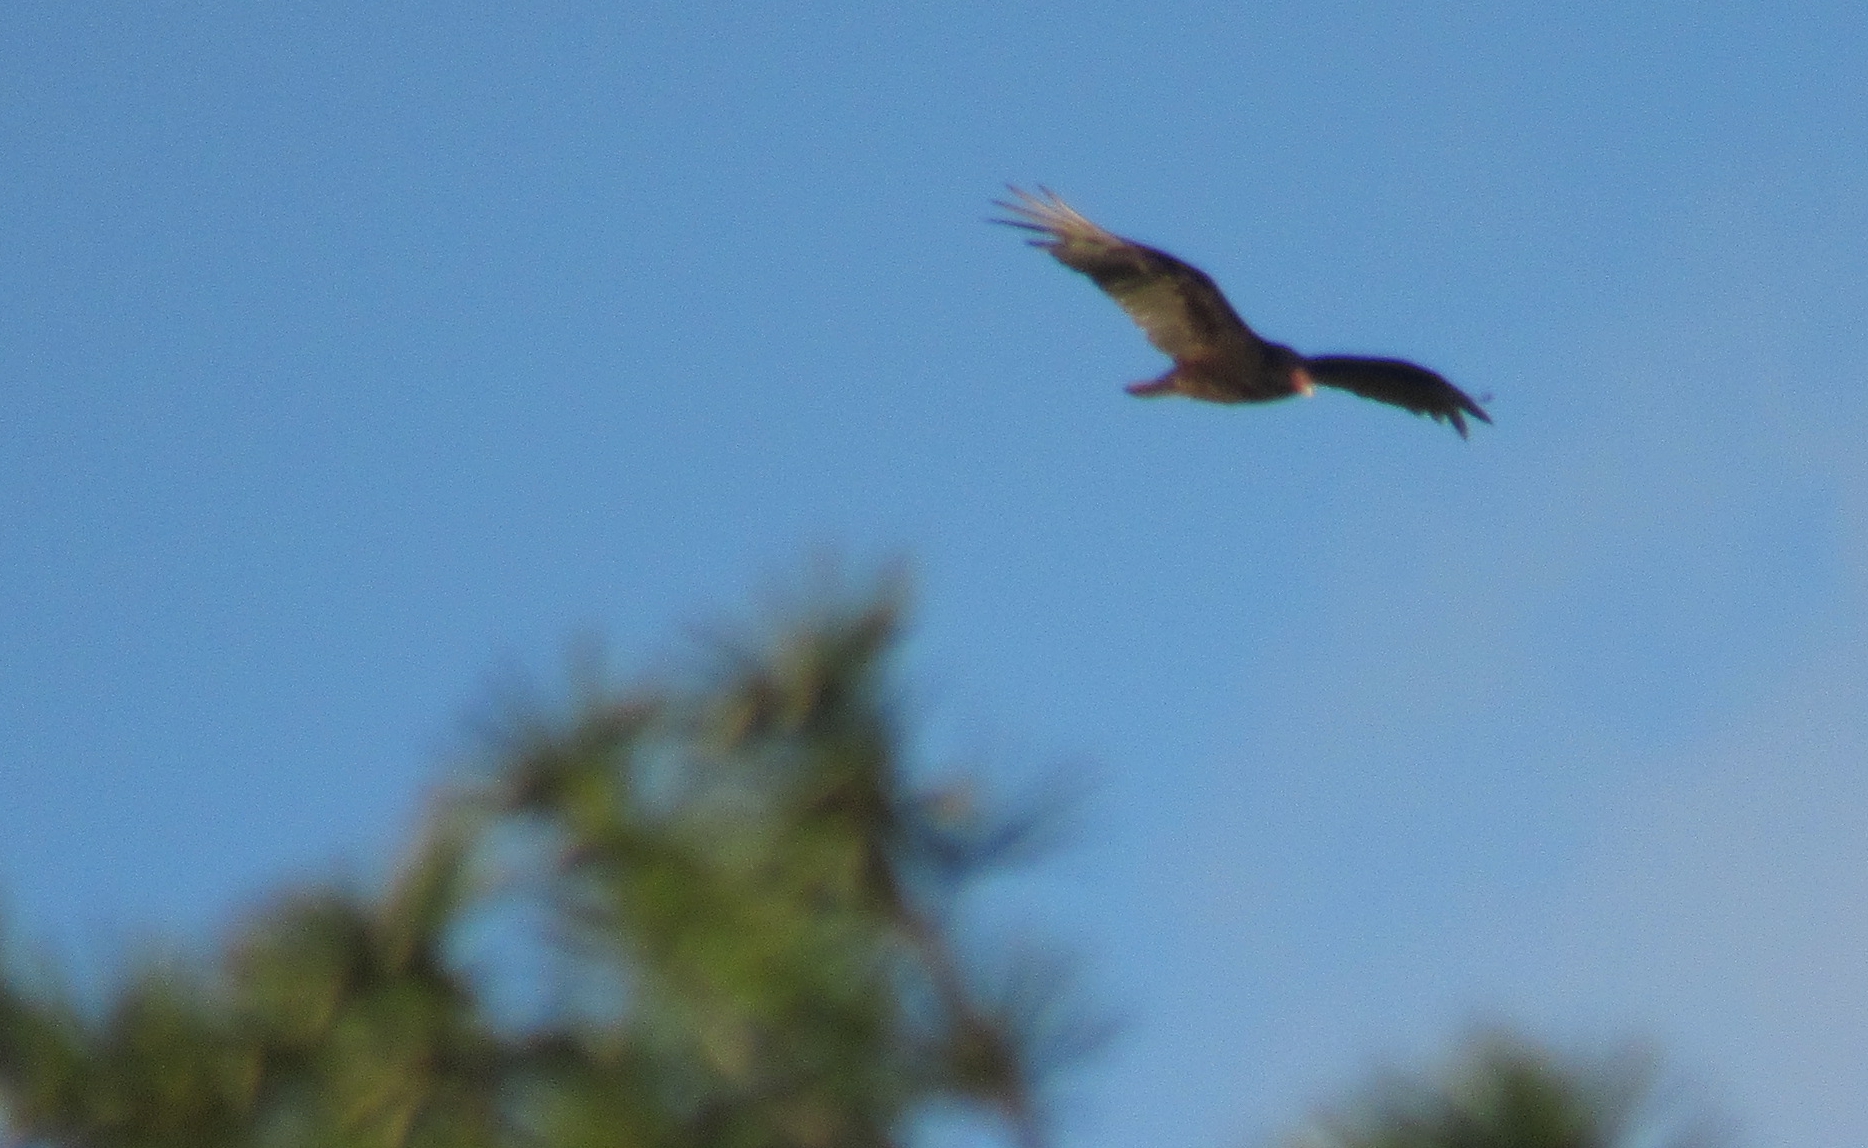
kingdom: Animalia
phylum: Chordata
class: Aves
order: Accipitriformes
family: Cathartidae
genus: Cathartes
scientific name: Cathartes aura
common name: Turkey vulture
